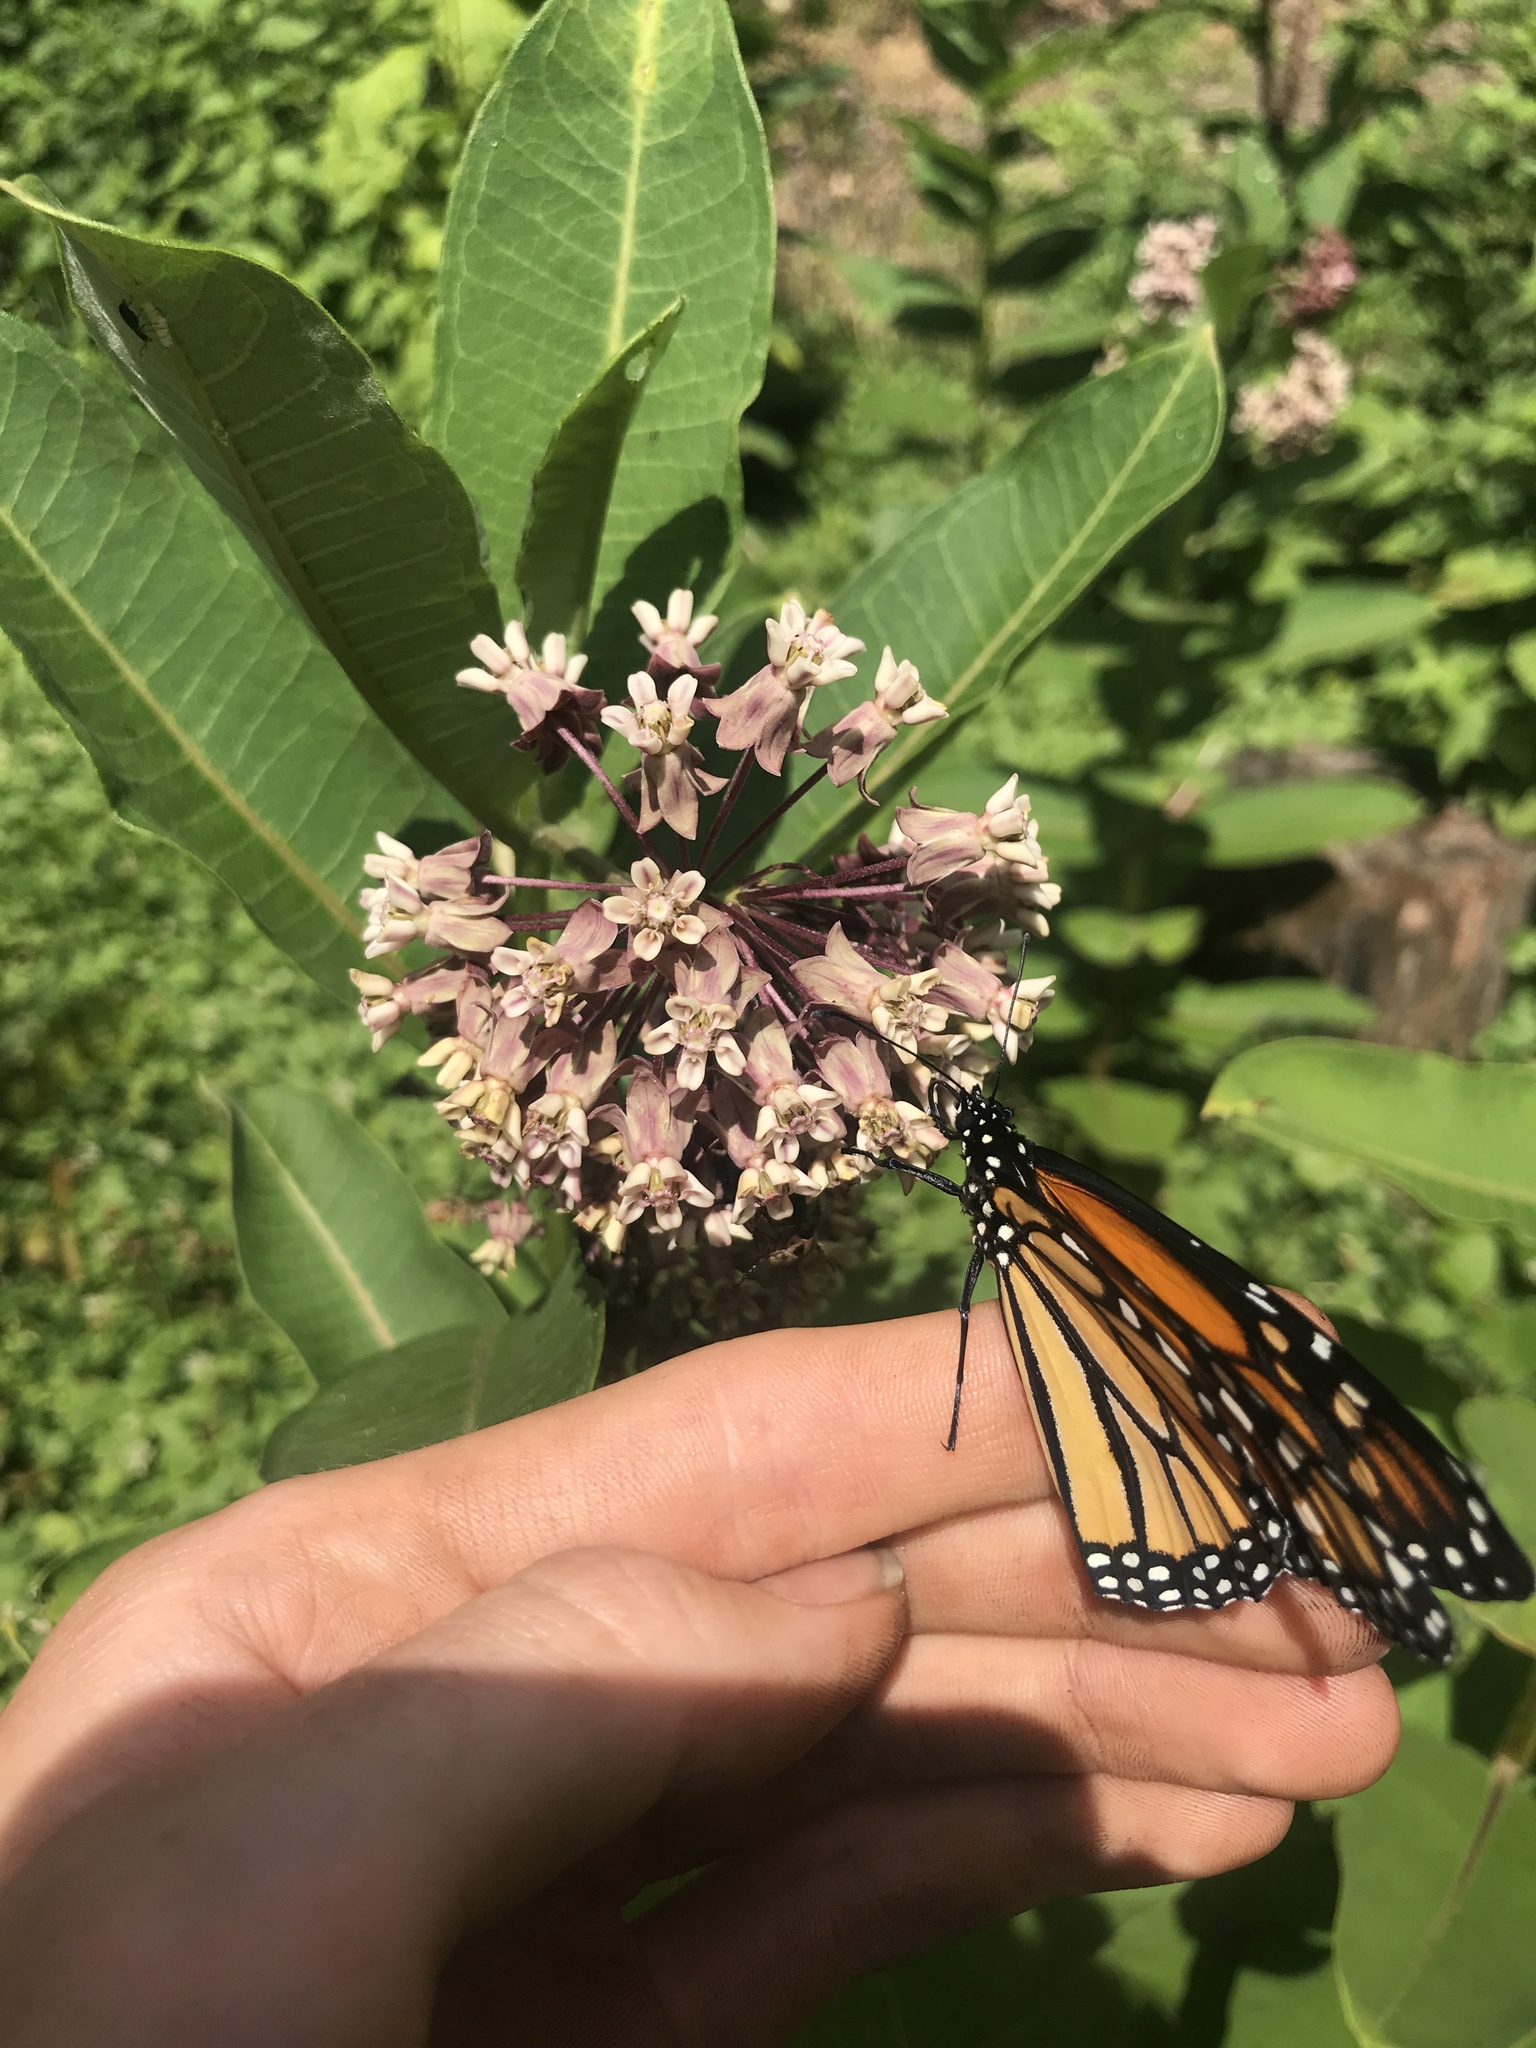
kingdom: Animalia
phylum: Arthropoda
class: Insecta
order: Lepidoptera
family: Nymphalidae
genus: Danaus
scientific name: Danaus plexippus
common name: Monarch
